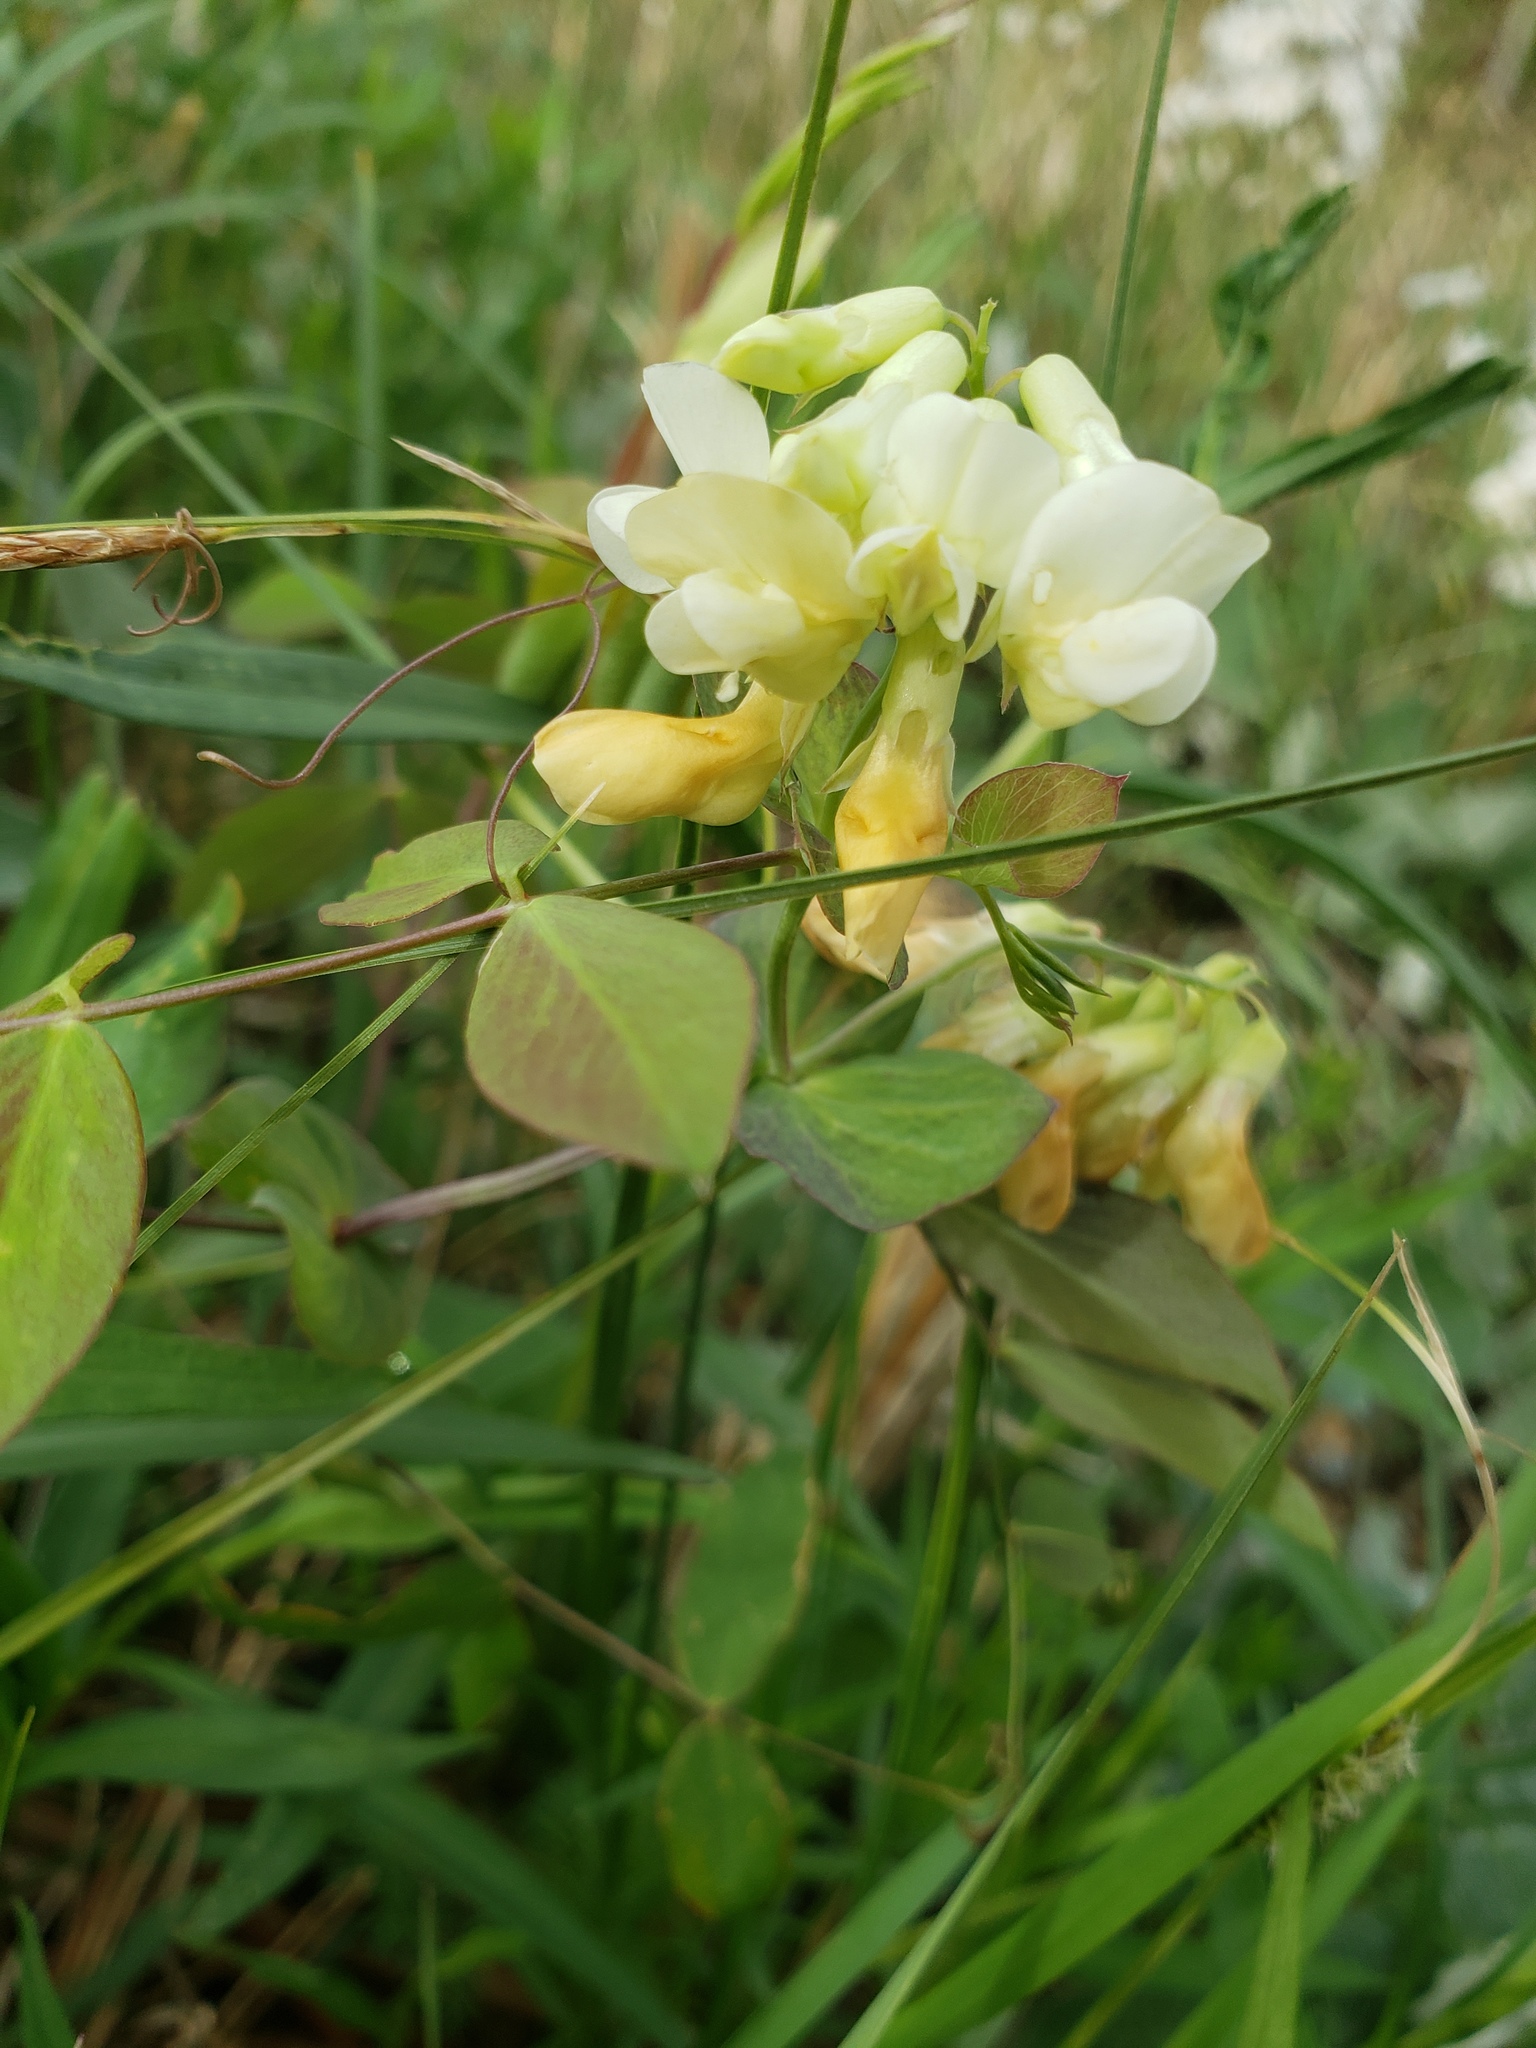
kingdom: Plantae
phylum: Tracheophyta
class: Magnoliopsida
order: Fabales
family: Fabaceae
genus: Lathyrus
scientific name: Lathyrus ochroleucus
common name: Pale vetchling
